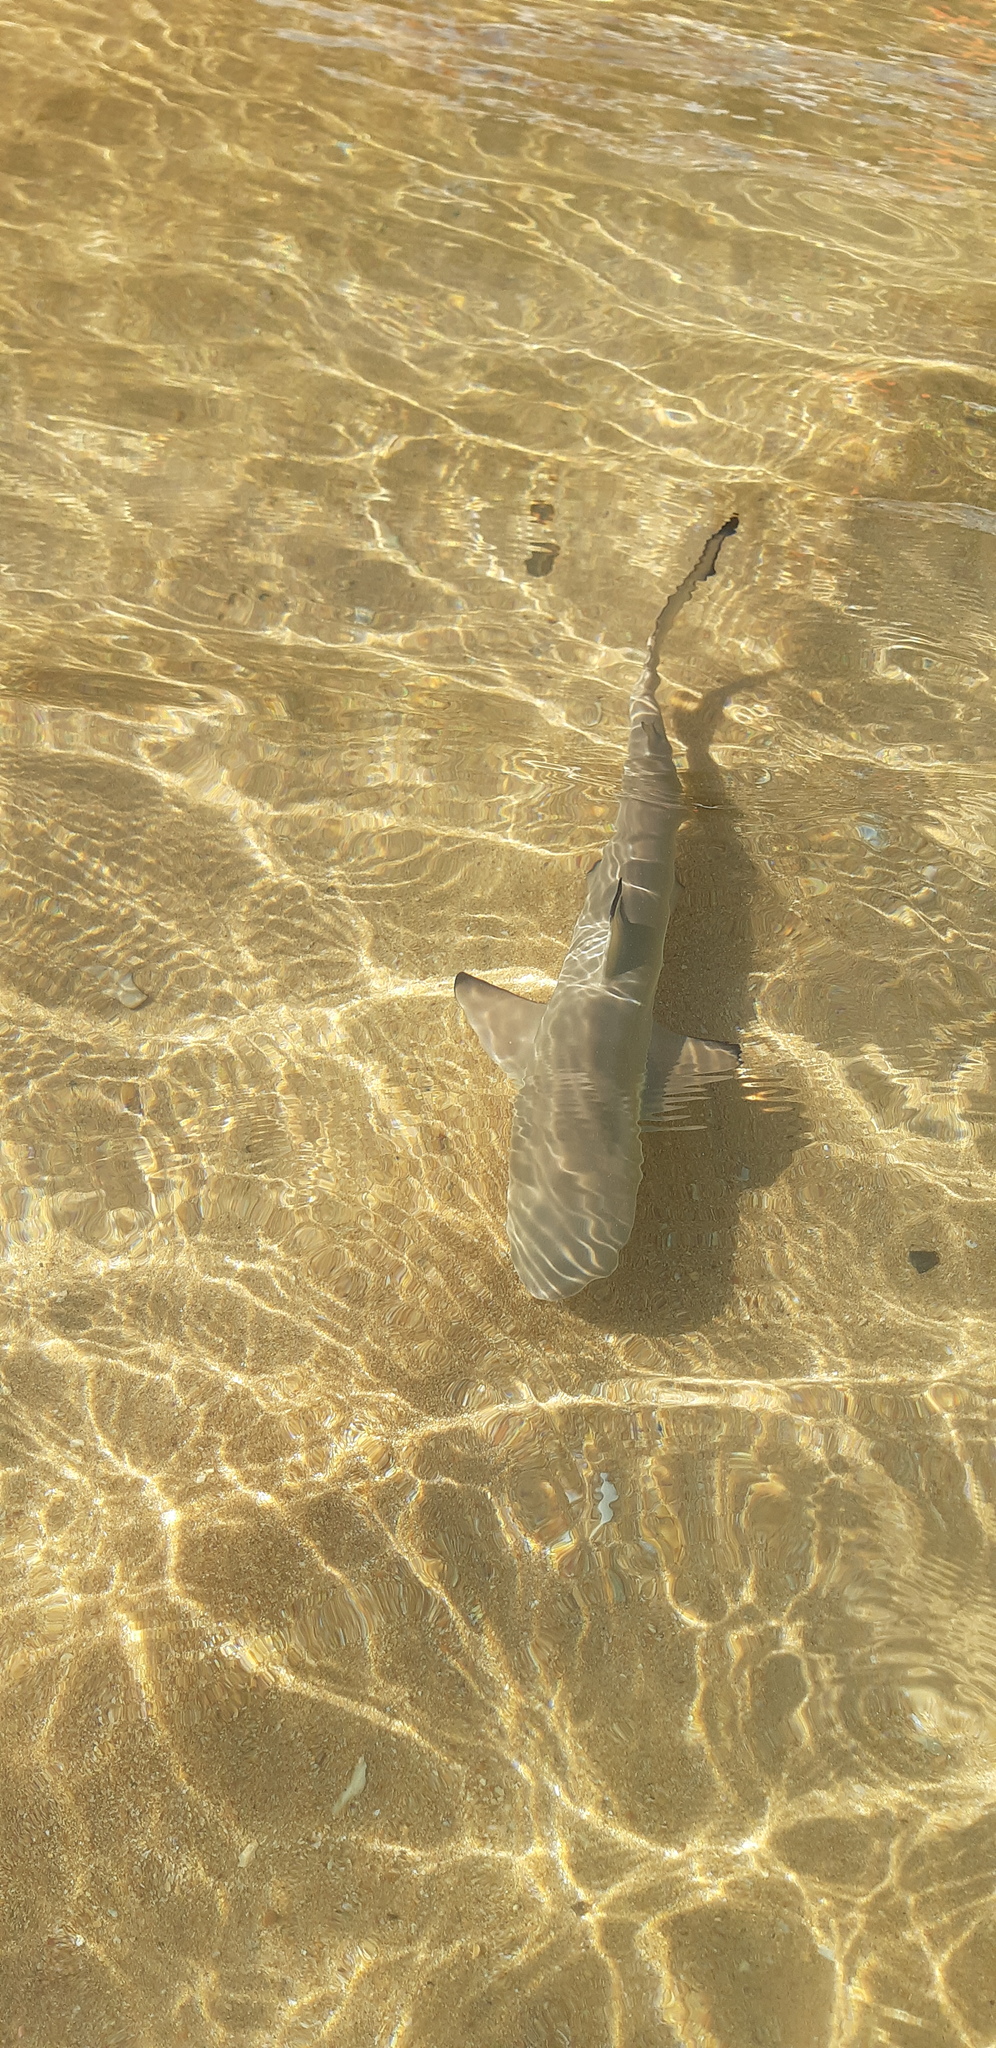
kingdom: Animalia
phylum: Chordata
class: Elasmobranchii
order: Carcharhiniformes
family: Carcharhinidae
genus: Carcharhinus
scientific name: Carcharhinus melanopterus
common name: Blacktip reef shark
